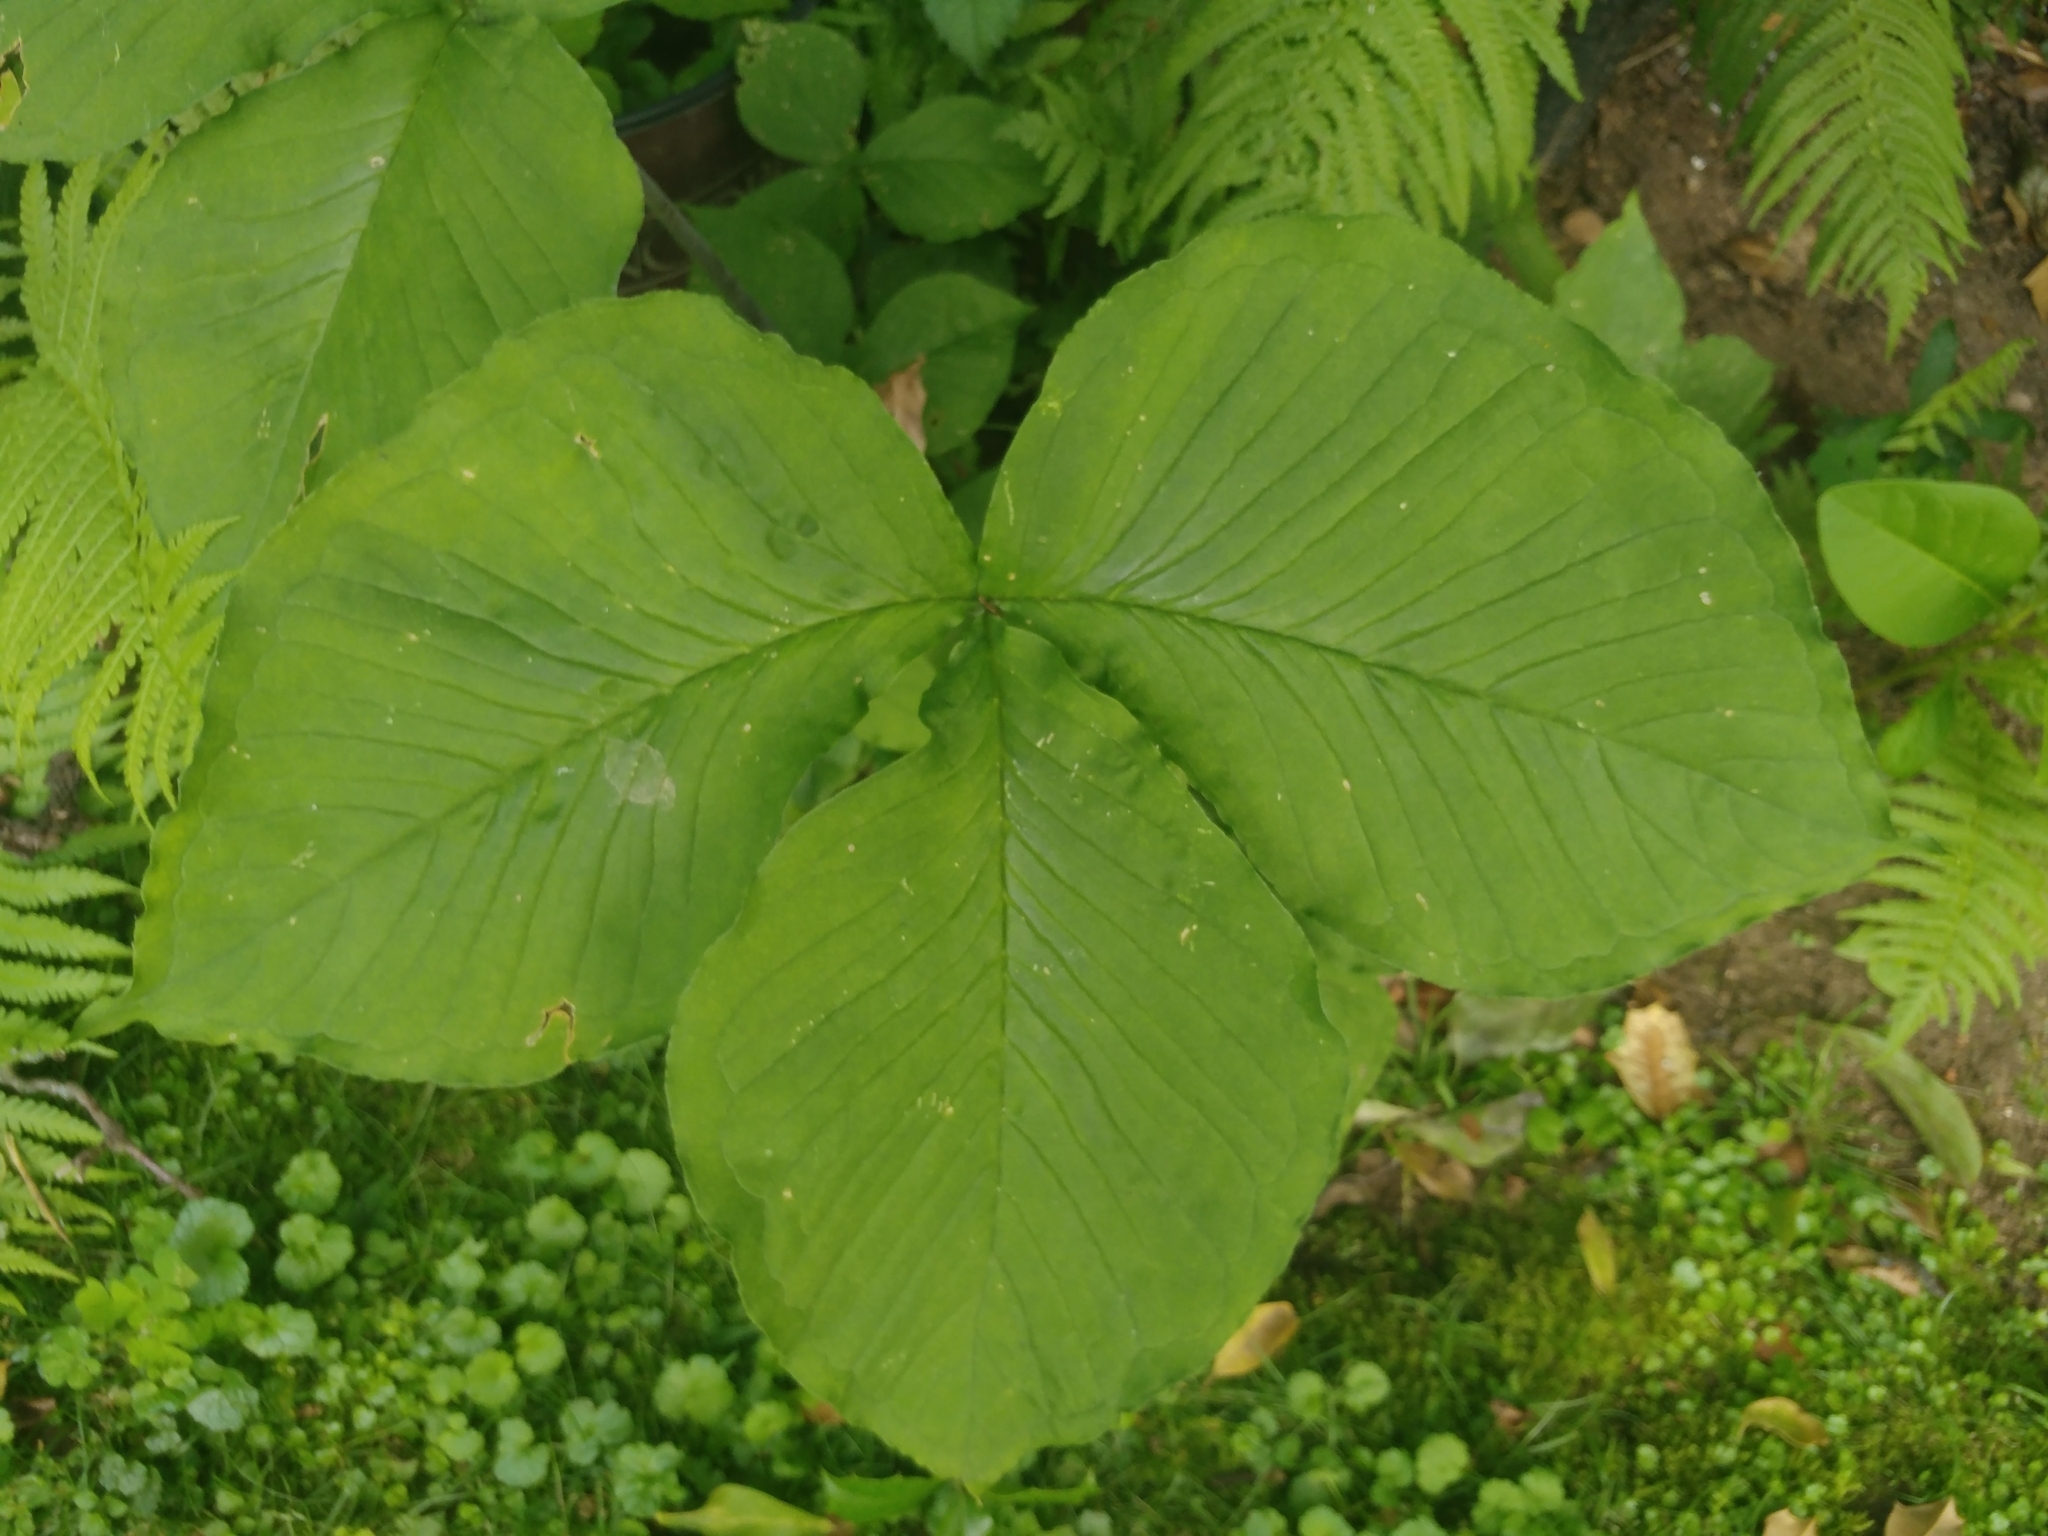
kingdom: Plantae
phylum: Tracheophyta
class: Liliopsida
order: Alismatales
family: Araceae
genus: Arisaema
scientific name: Arisaema triphyllum
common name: Jack-in-the-pulpit
